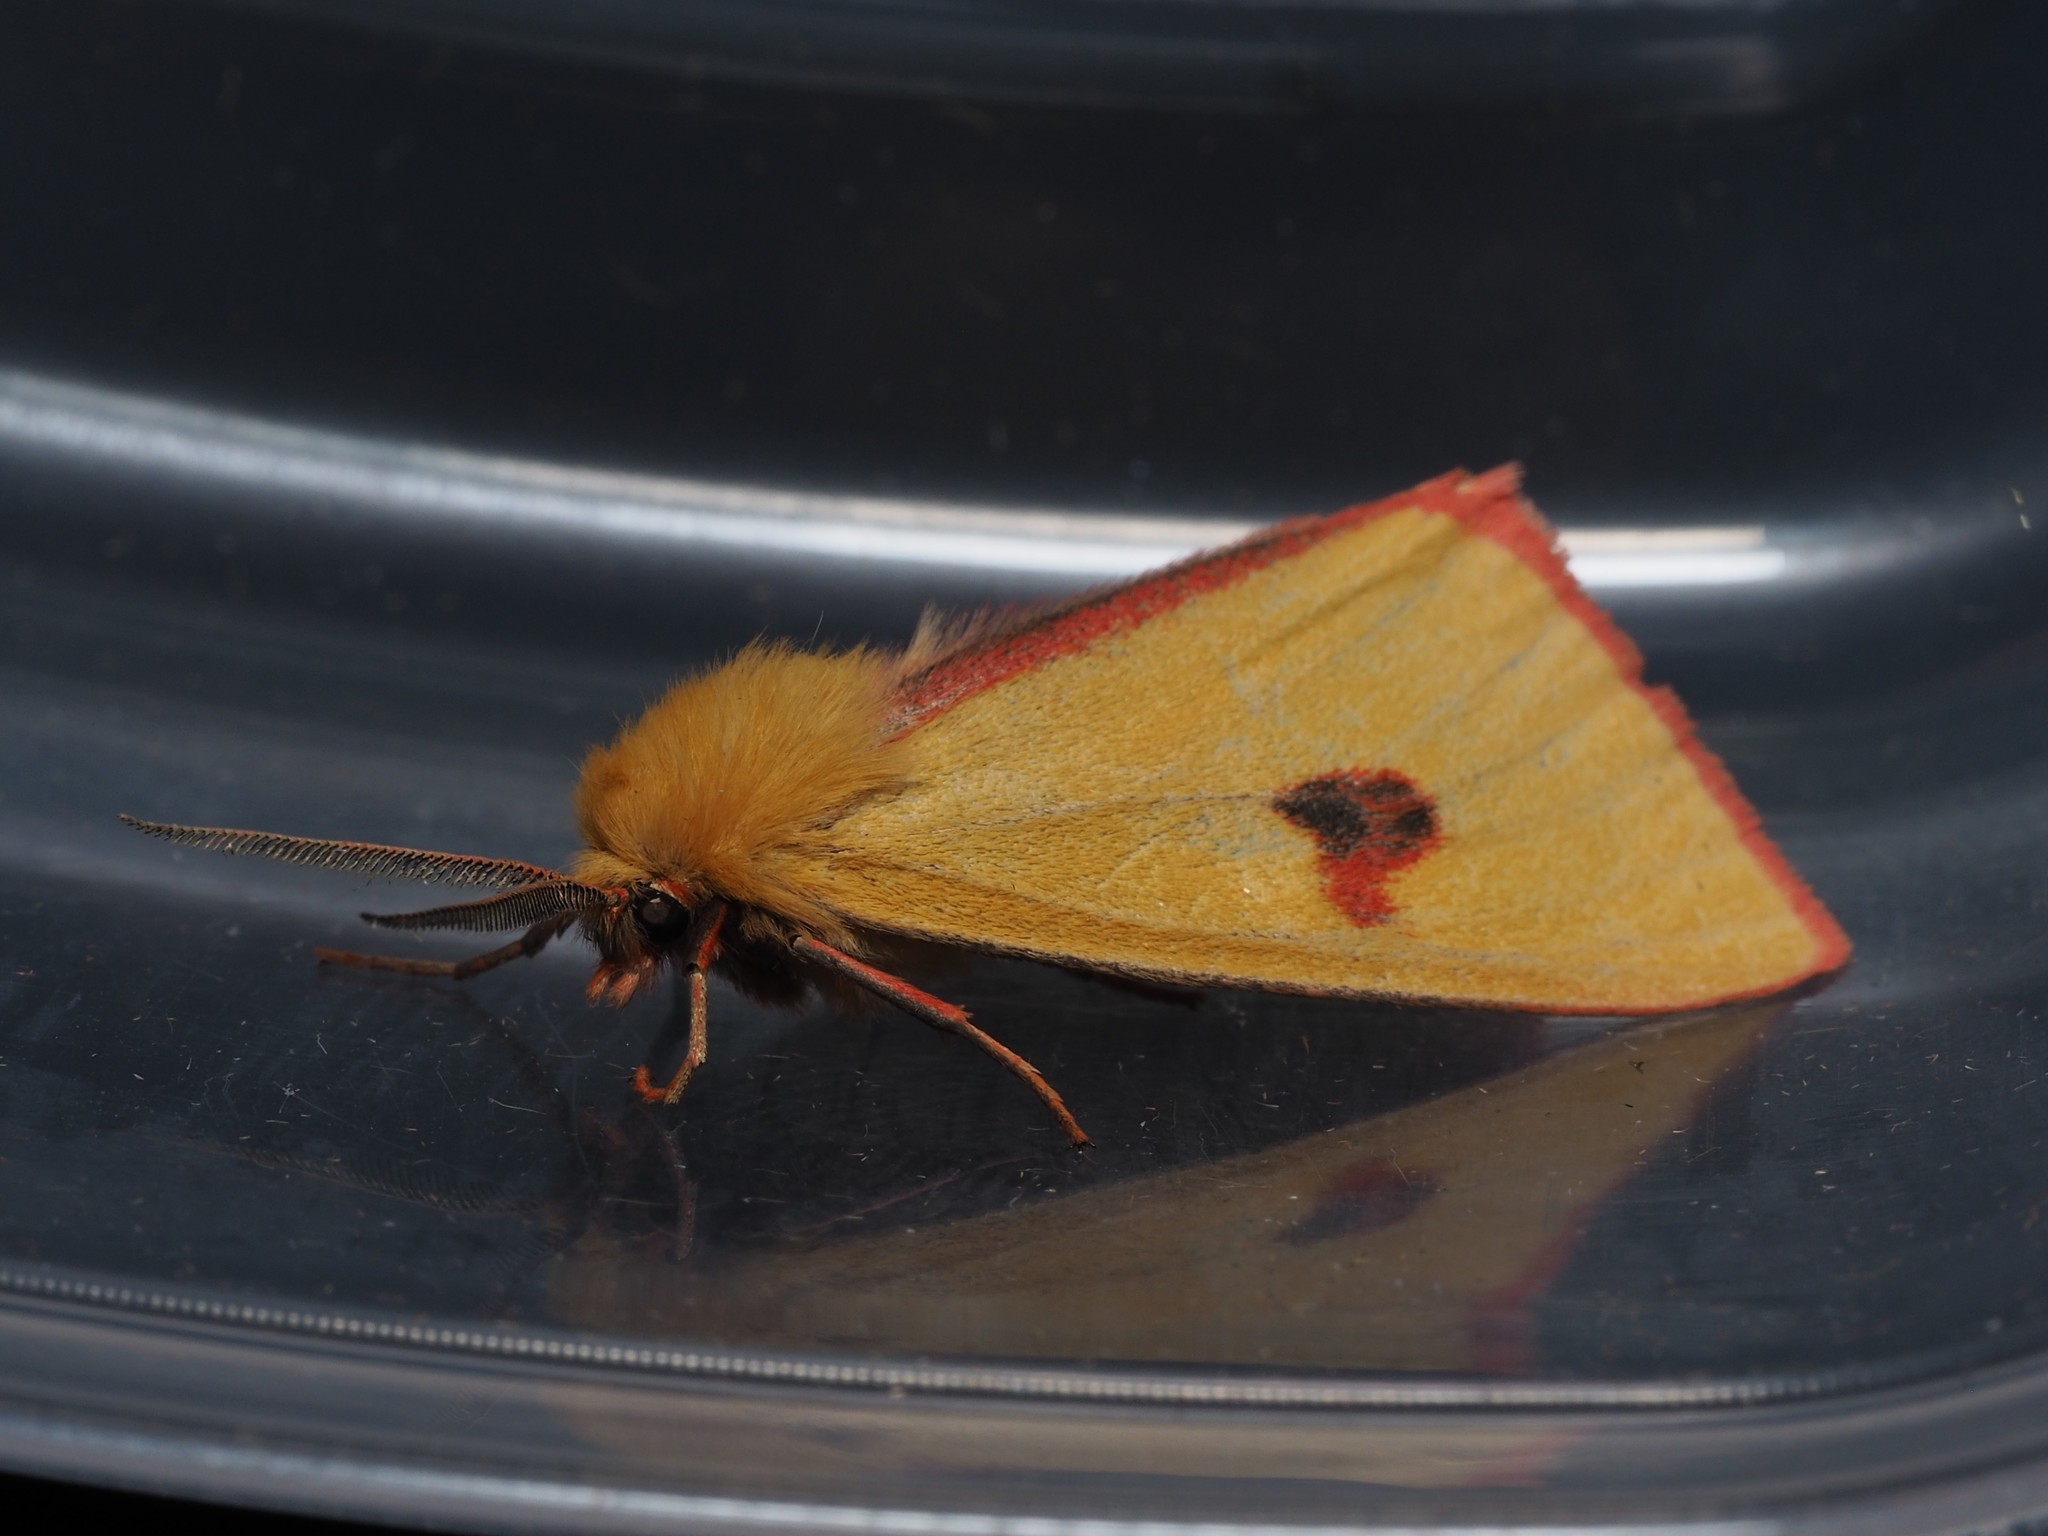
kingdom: Animalia
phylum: Arthropoda
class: Insecta
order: Lepidoptera
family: Erebidae
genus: Diacrisia
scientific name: Diacrisia sannio
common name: Clouded buff
